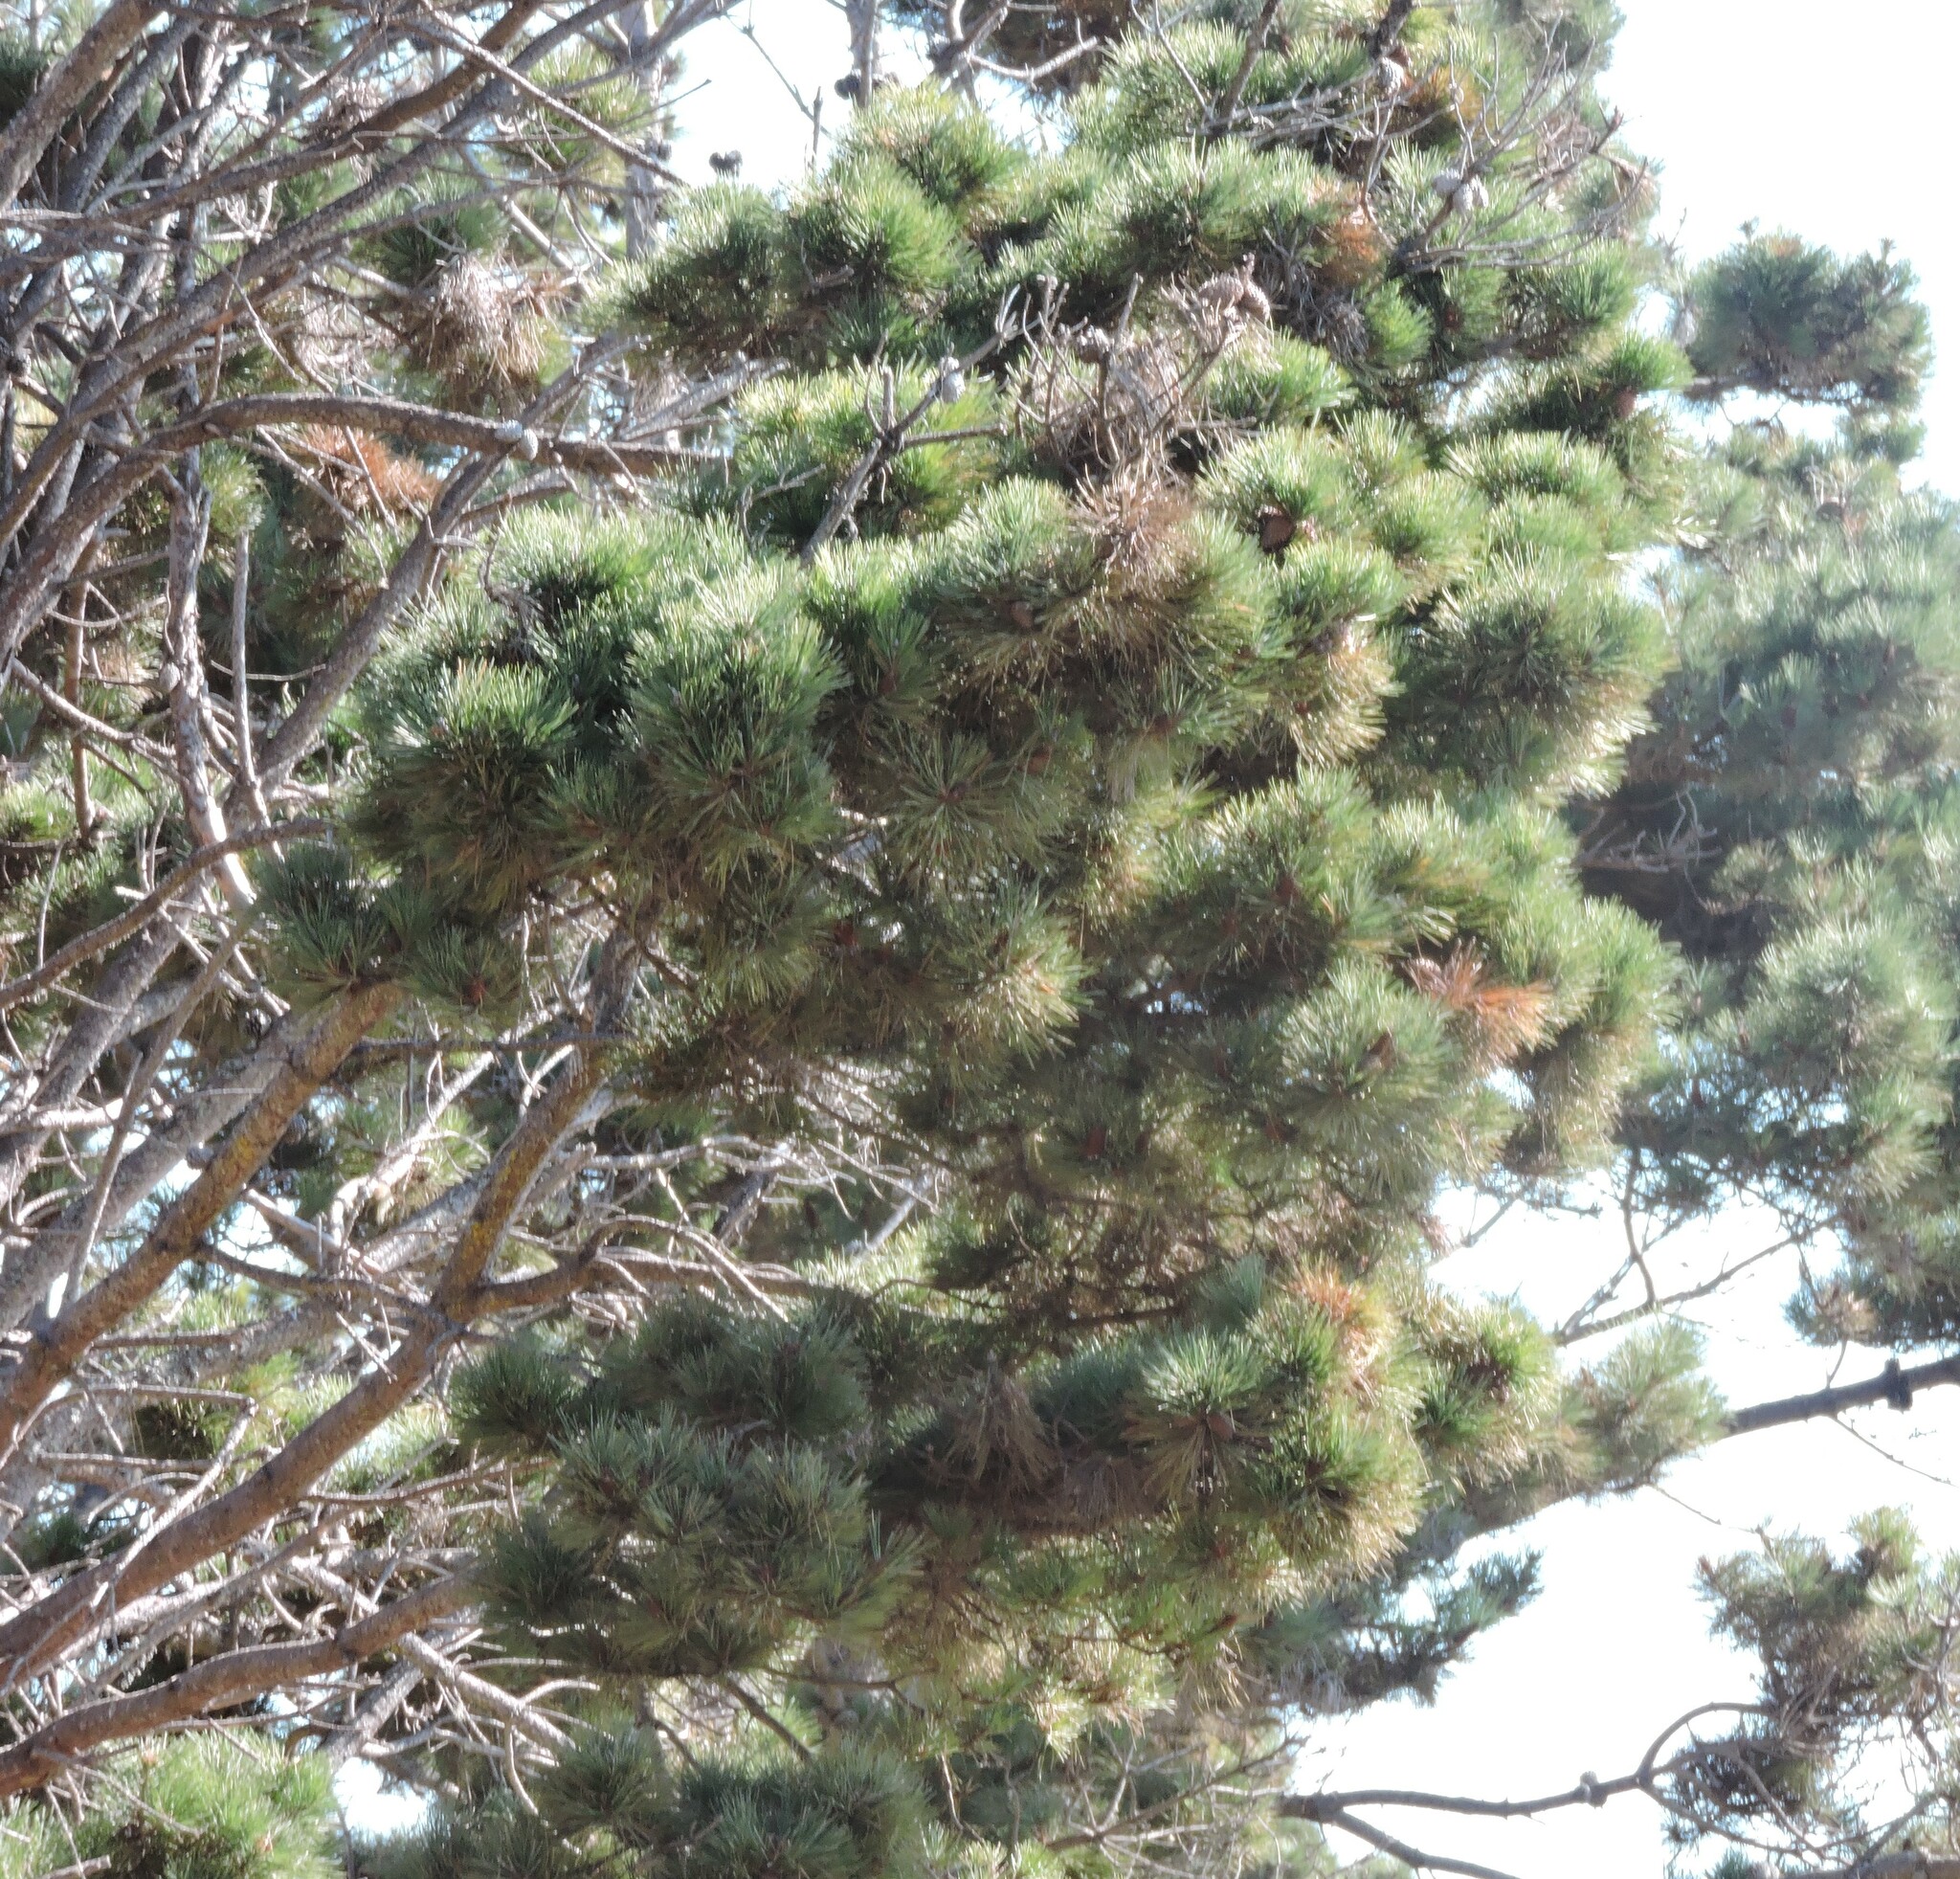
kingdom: Plantae
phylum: Tracheophyta
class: Pinopsida
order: Pinales
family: Pinaceae
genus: Pinus
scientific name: Pinus muricata
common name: Bishop pine
